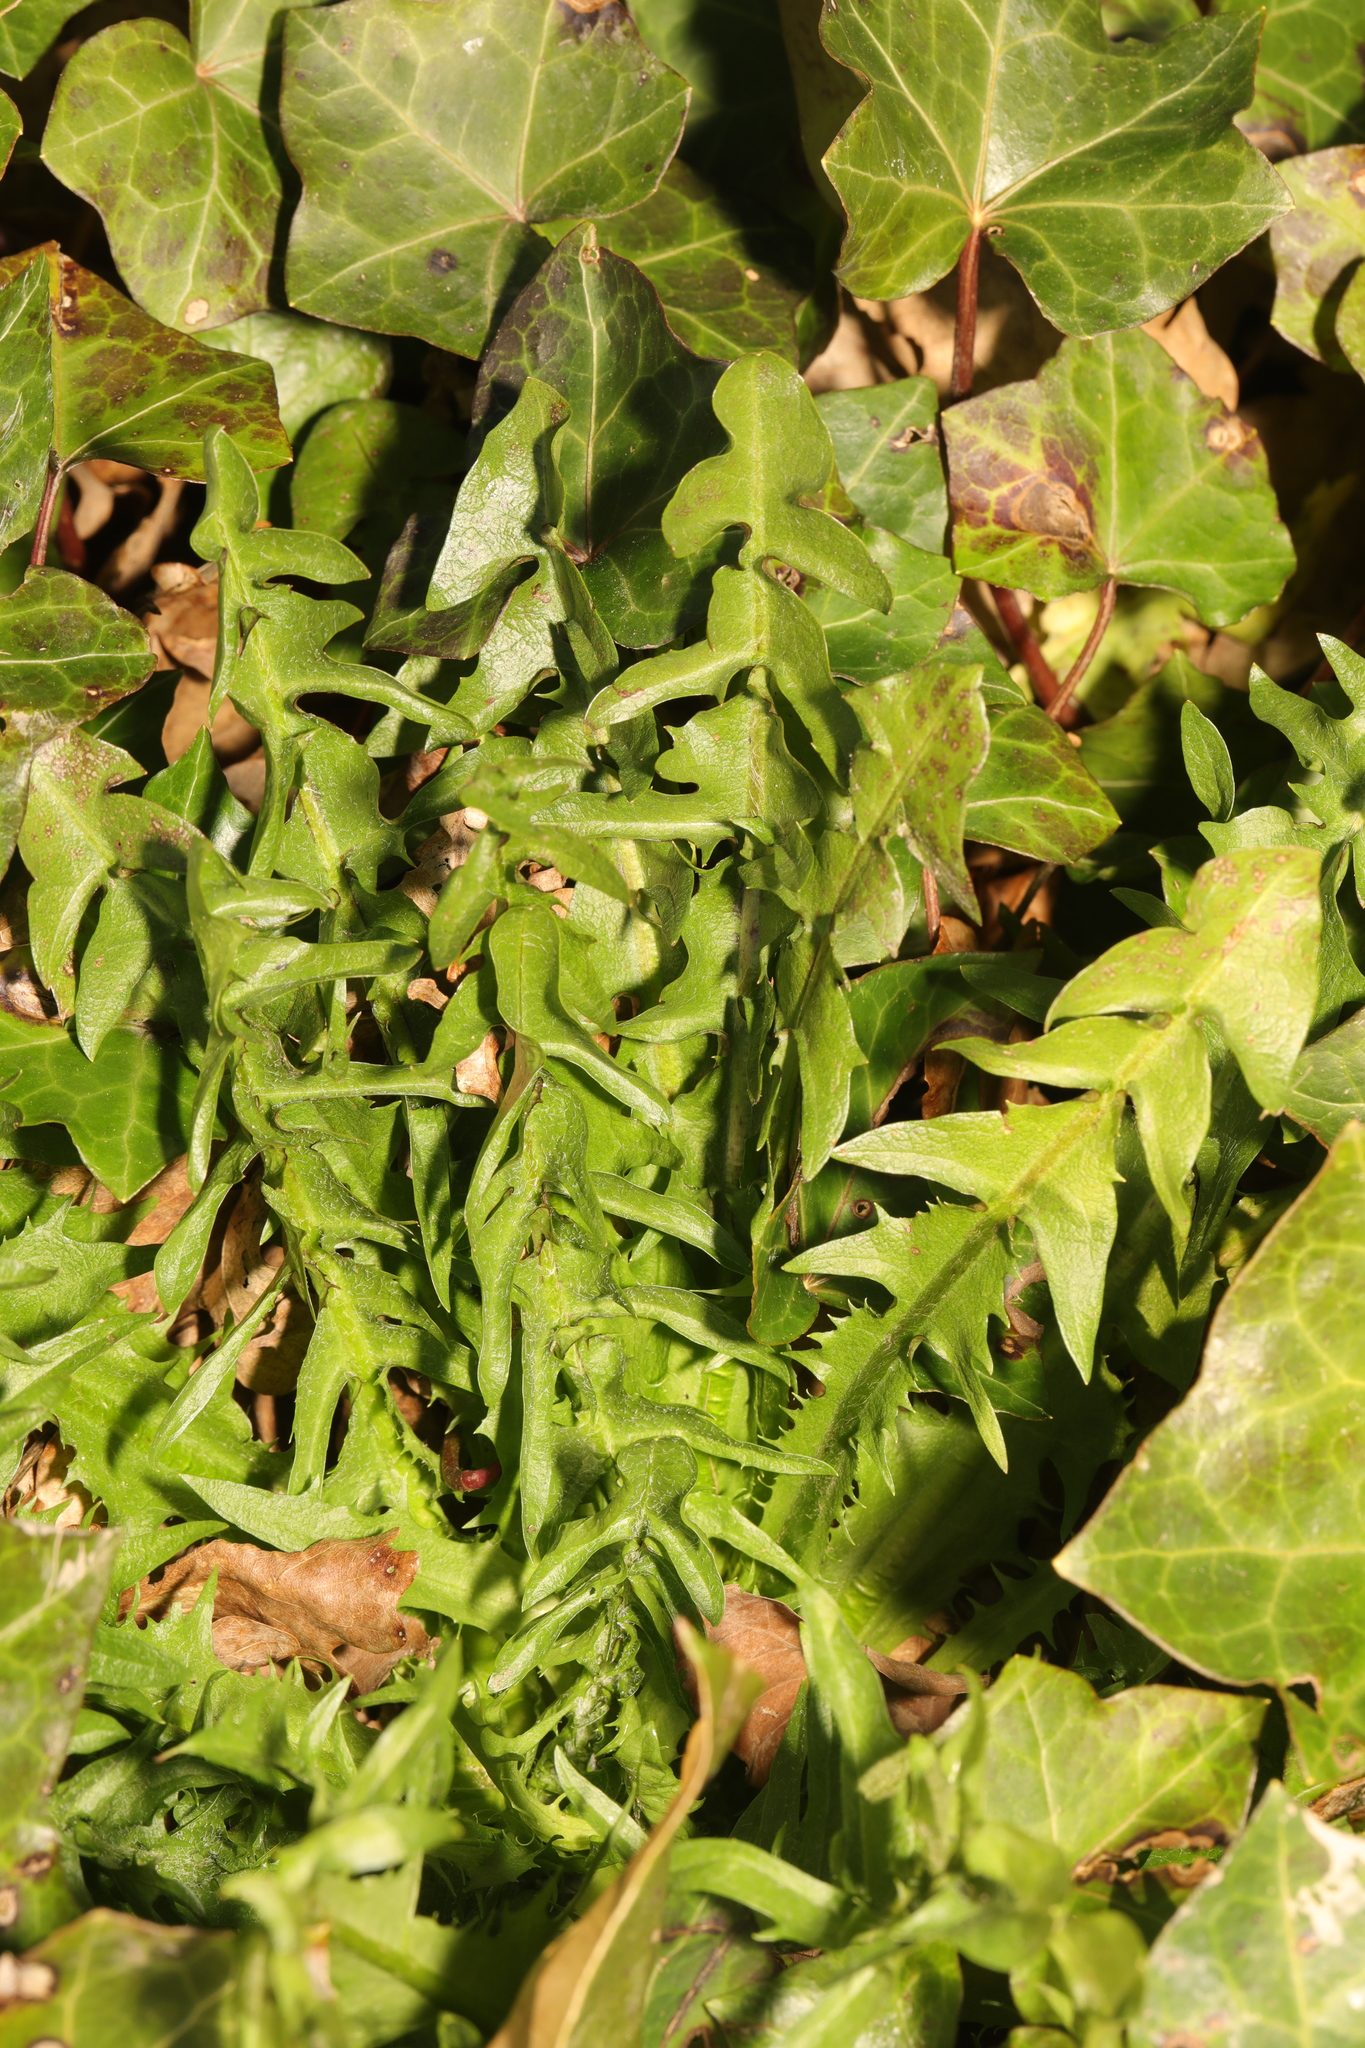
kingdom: Plantae
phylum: Tracheophyta
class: Magnoliopsida
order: Asterales
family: Asteraceae
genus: Taraxacum
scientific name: Taraxacum
